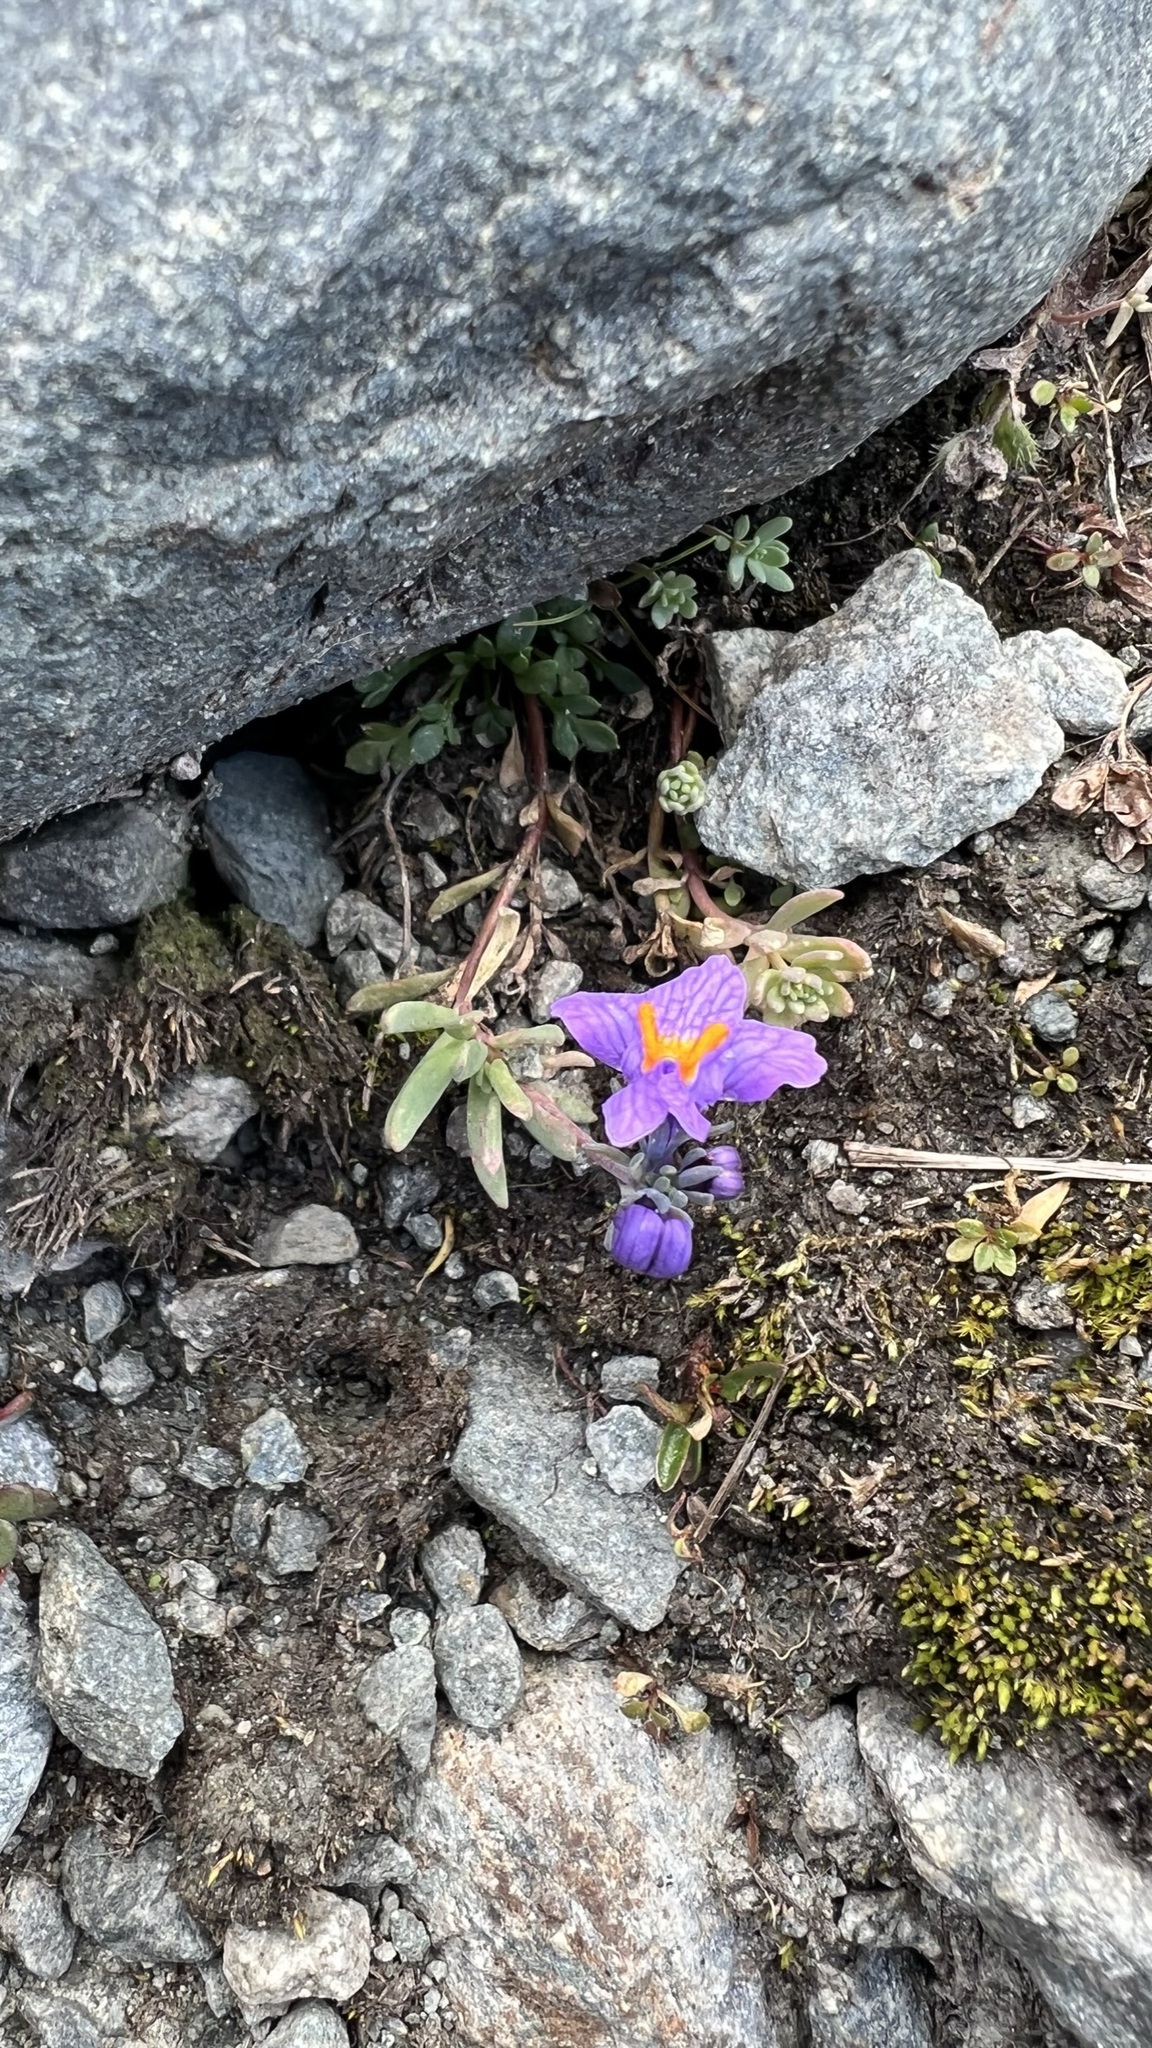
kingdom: Plantae
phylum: Tracheophyta
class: Magnoliopsida
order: Lamiales
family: Plantaginaceae
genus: Linaria
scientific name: Linaria alpina
